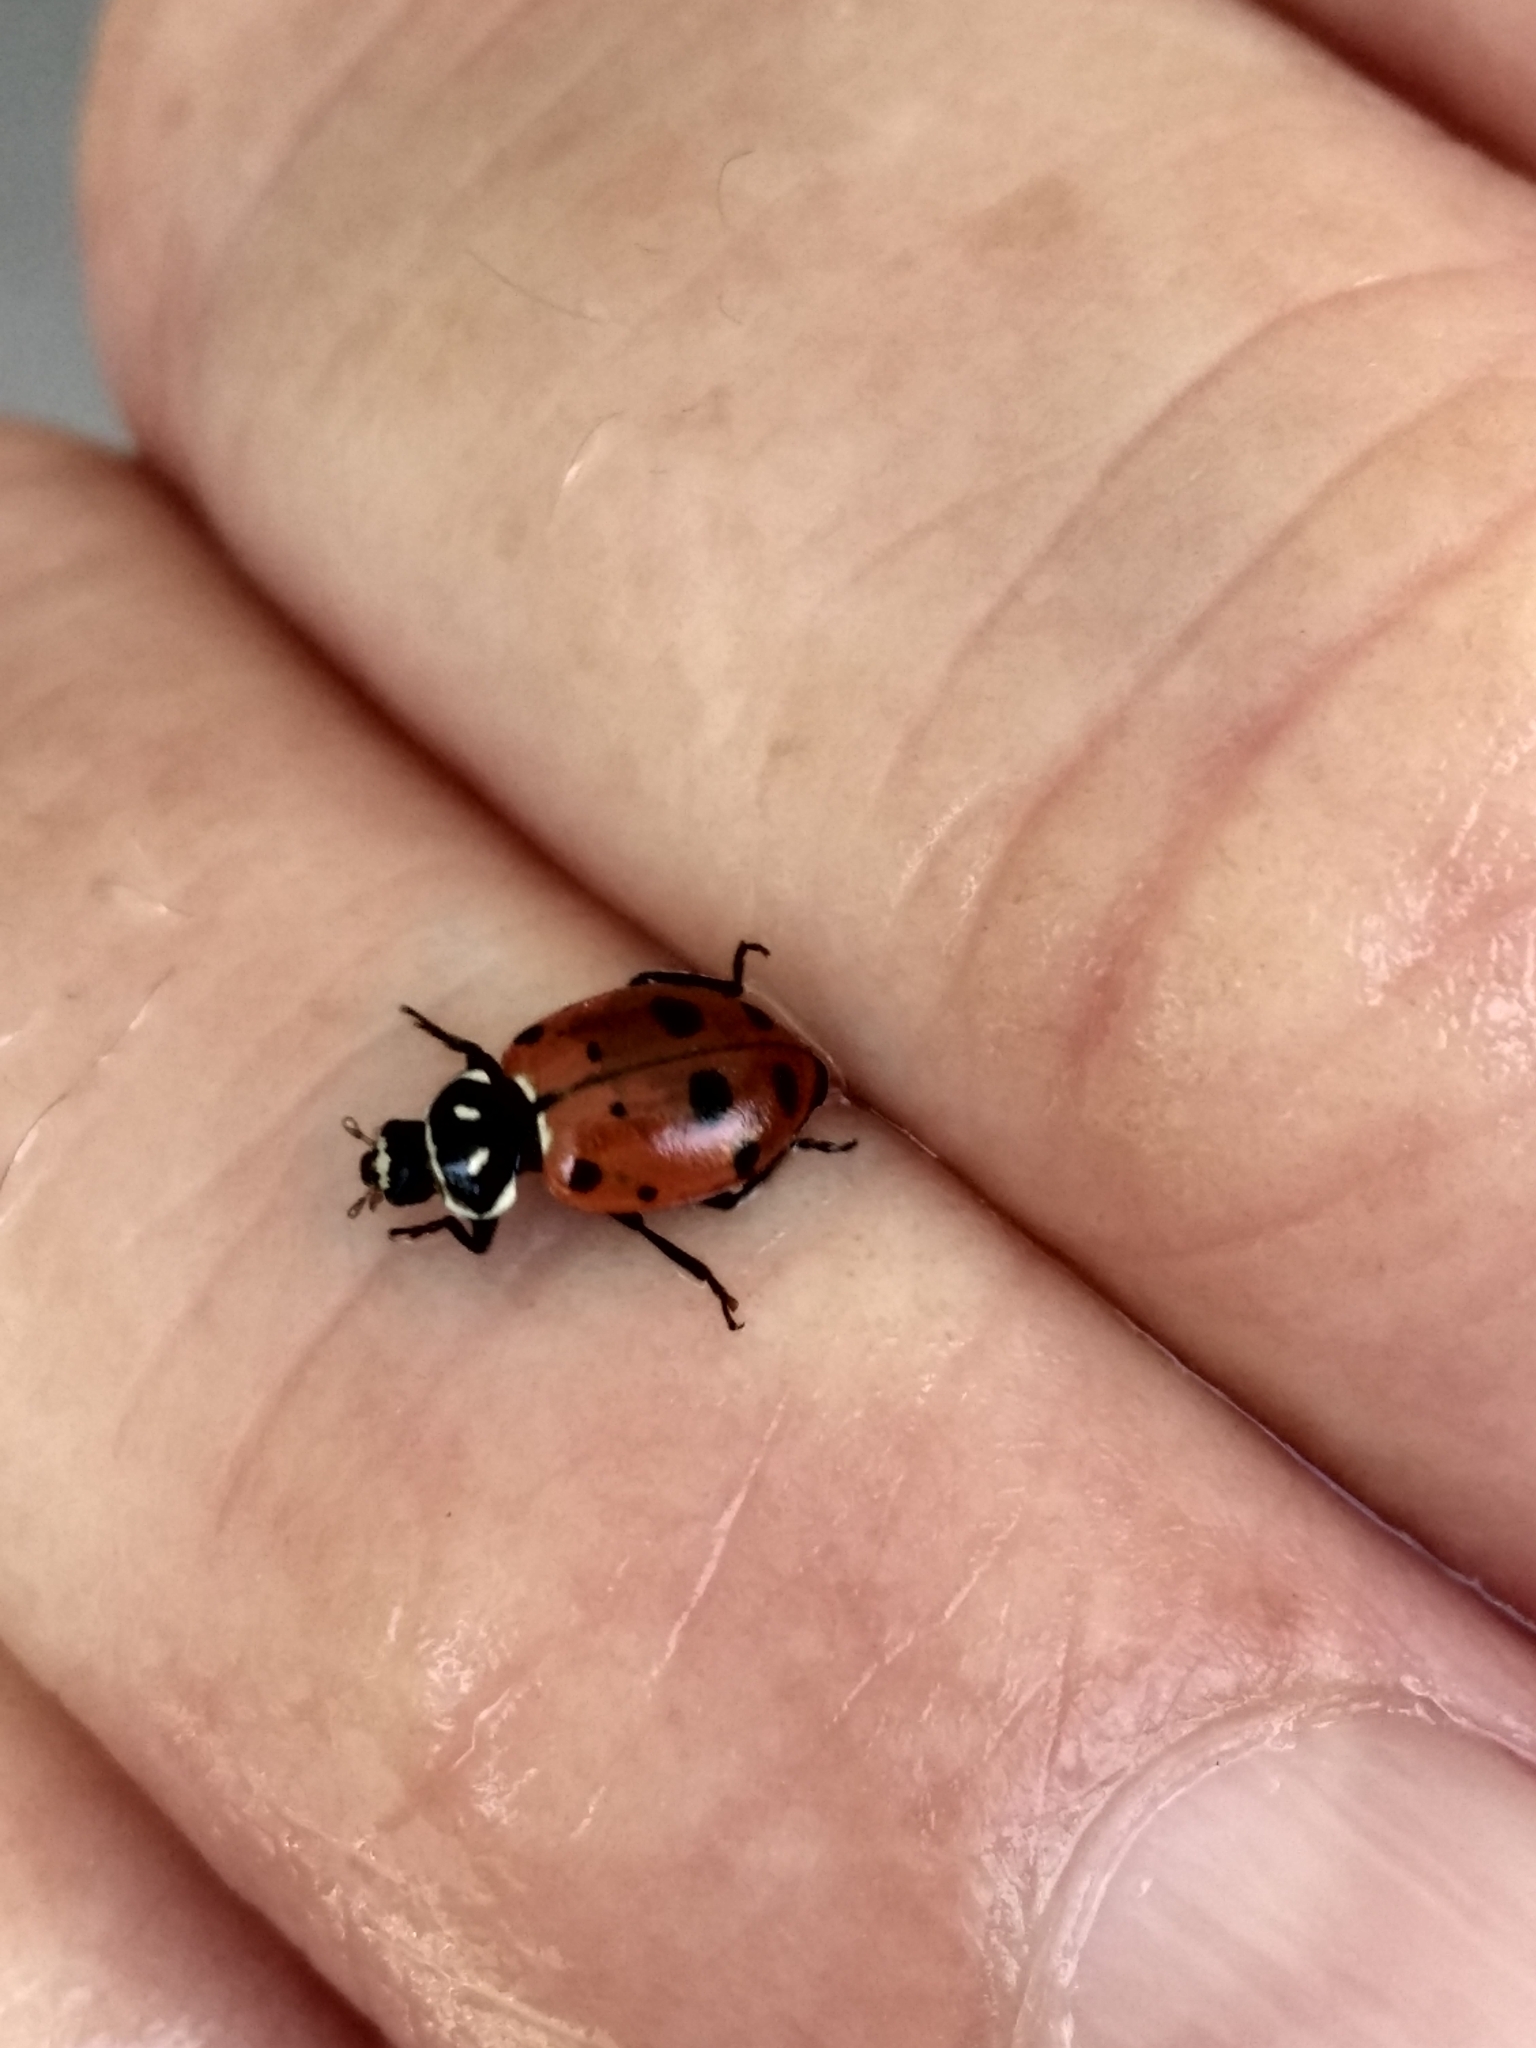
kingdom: Animalia
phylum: Arthropoda
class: Insecta
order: Coleoptera
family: Coccinellidae
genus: Hippodamia
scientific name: Hippodamia convergens
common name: Convergent lady beetle
